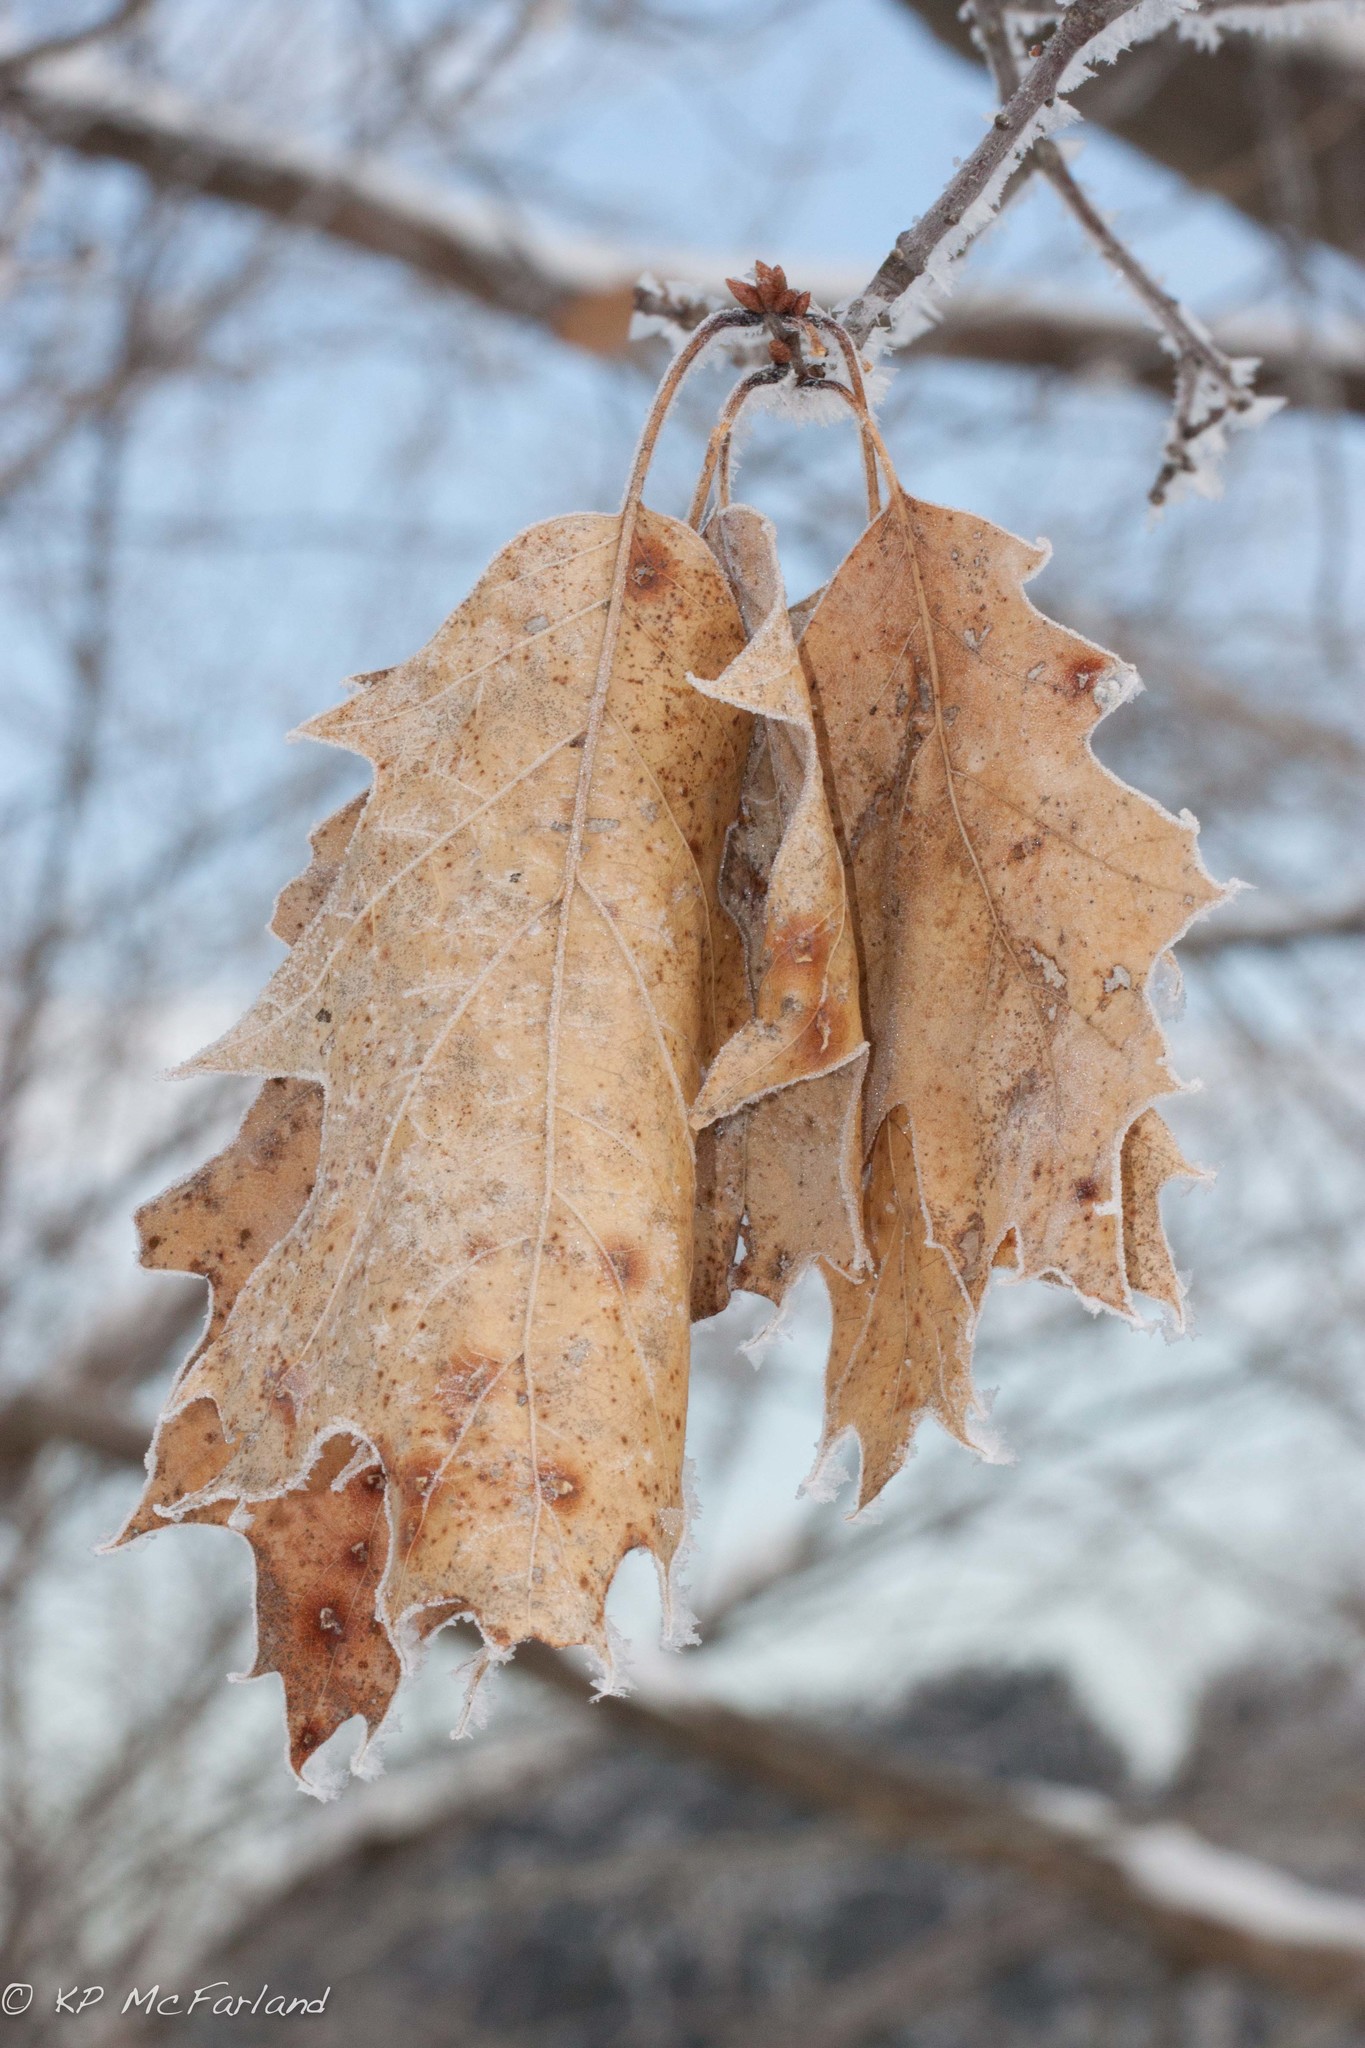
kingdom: Plantae
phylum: Tracheophyta
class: Magnoliopsida
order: Fagales
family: Fagaceae
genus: Quercus
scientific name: Quercus rubra
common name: Red oak
